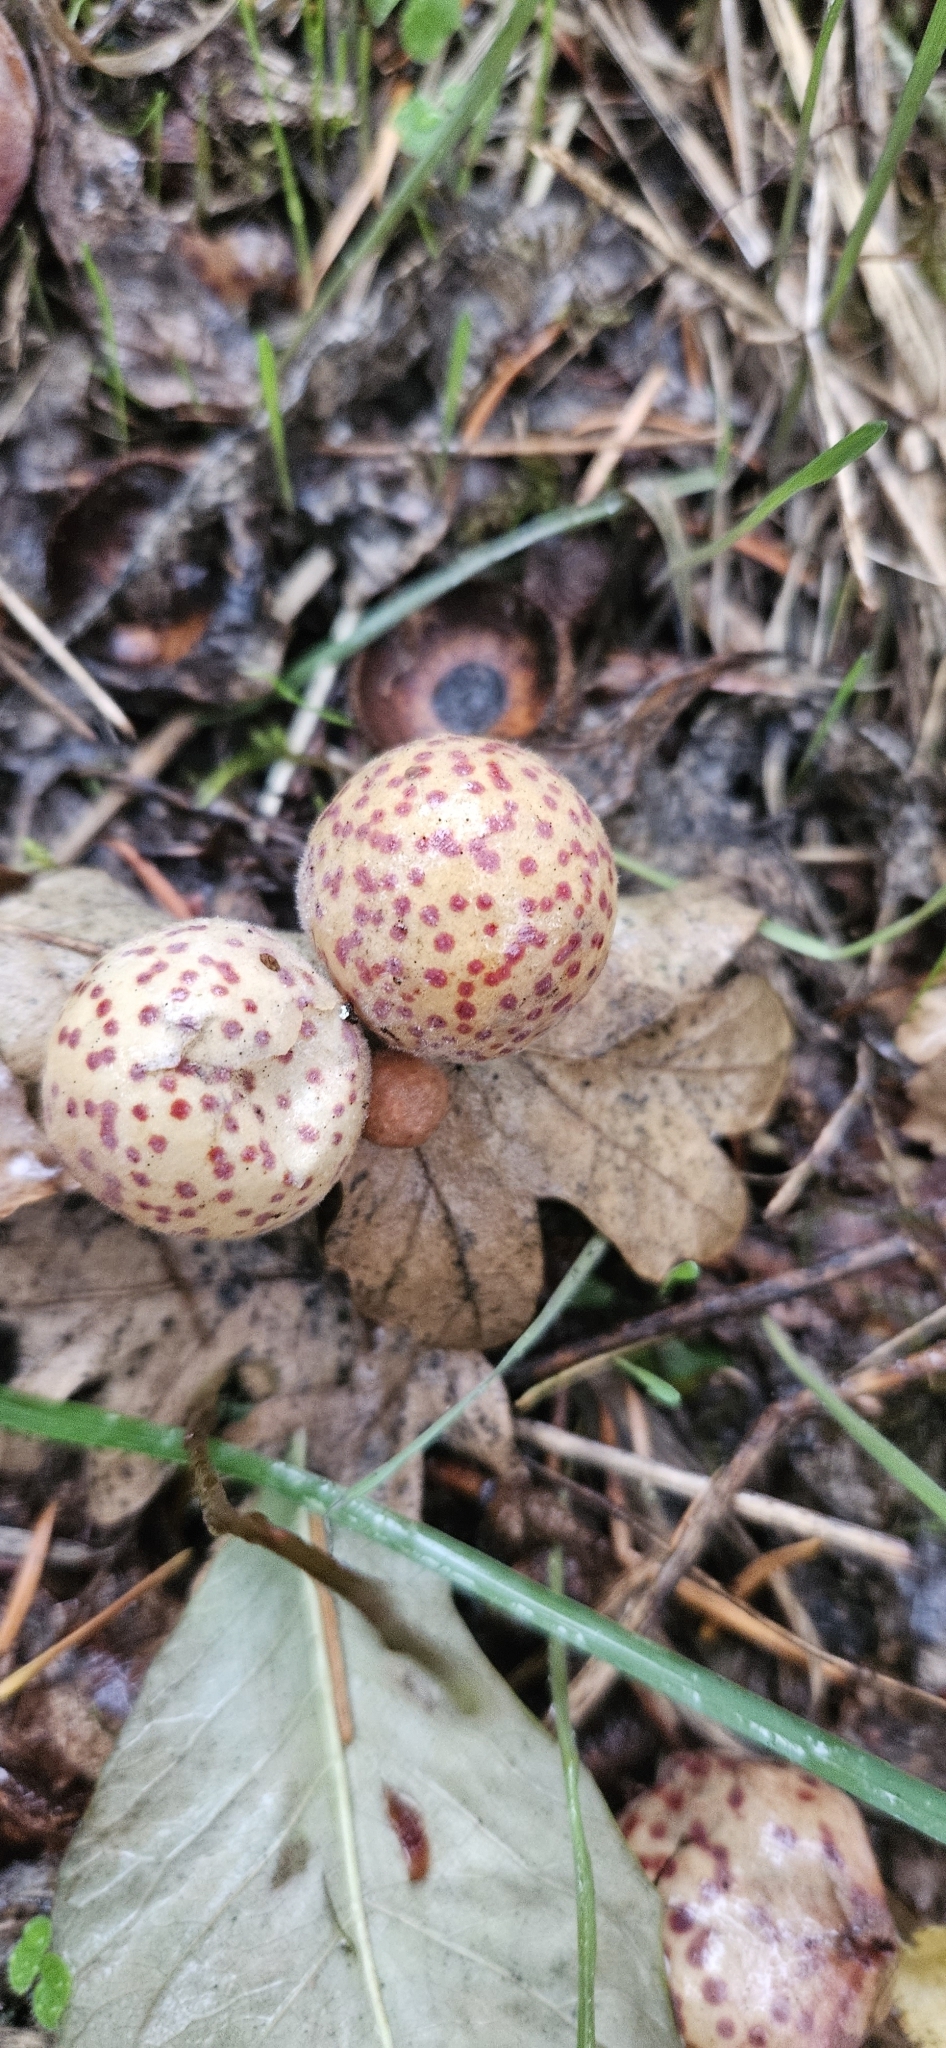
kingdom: Animalia
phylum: Arthropoda
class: Insecta
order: Hymenoptera
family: Cynipidae
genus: Cynips
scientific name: Cynips
